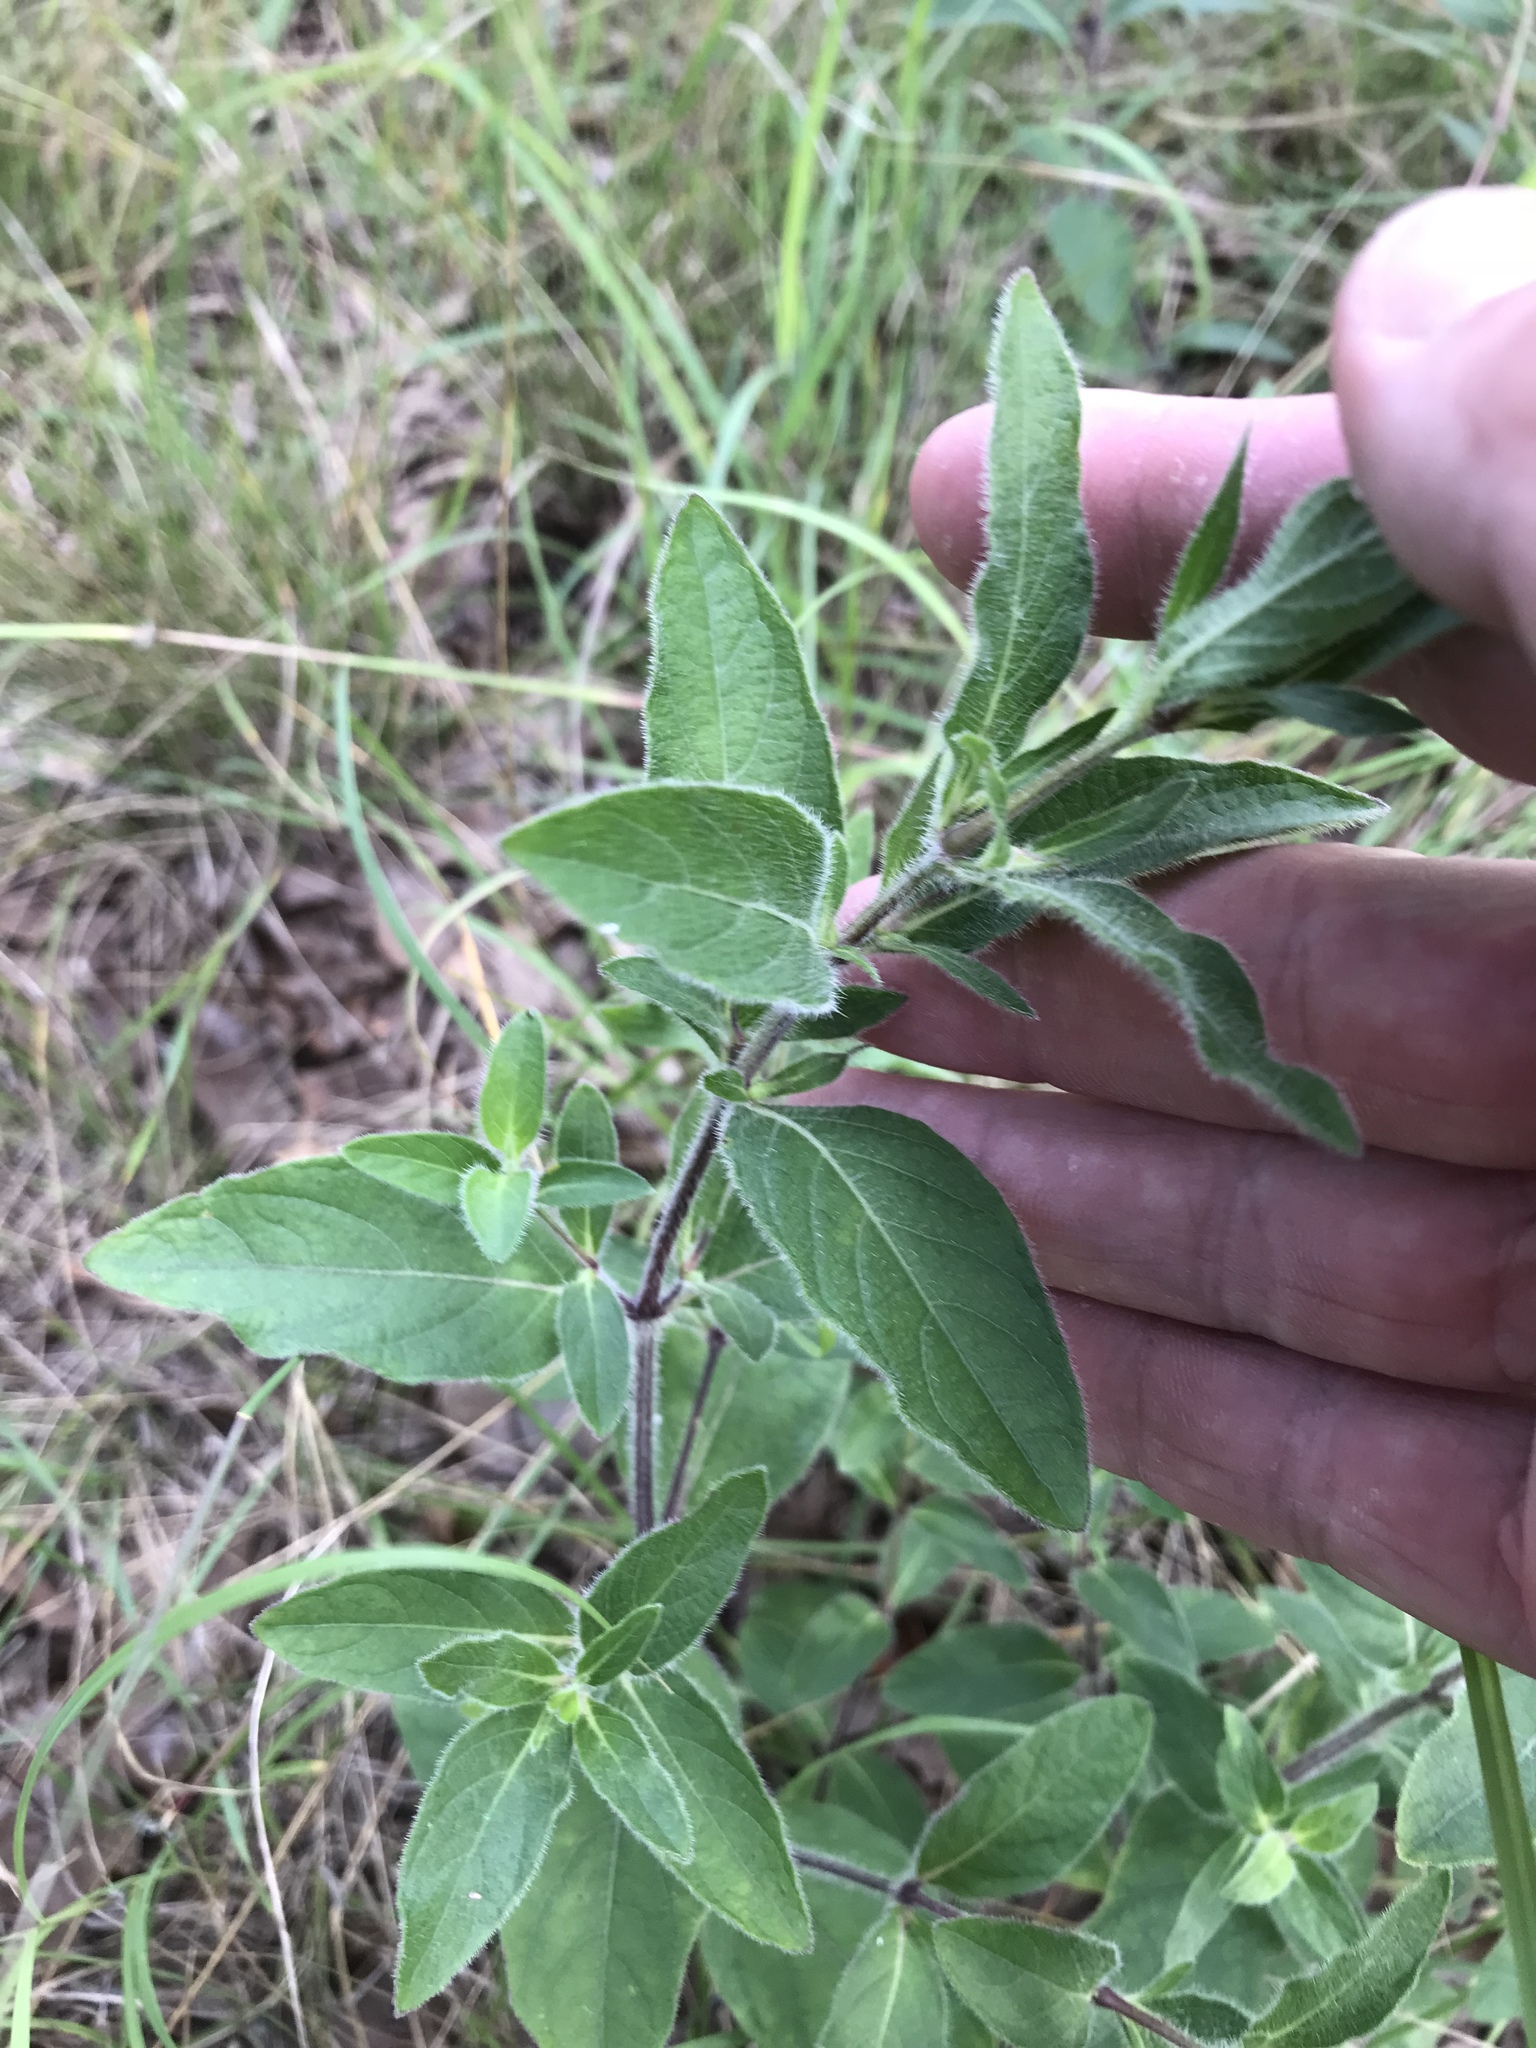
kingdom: Plantae
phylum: Tracheophyta
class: Magnoliopsida
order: Lamiales
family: Acanthaceae
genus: Ruellia
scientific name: Ruellia humilis
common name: Fringe-leaf ruellia
